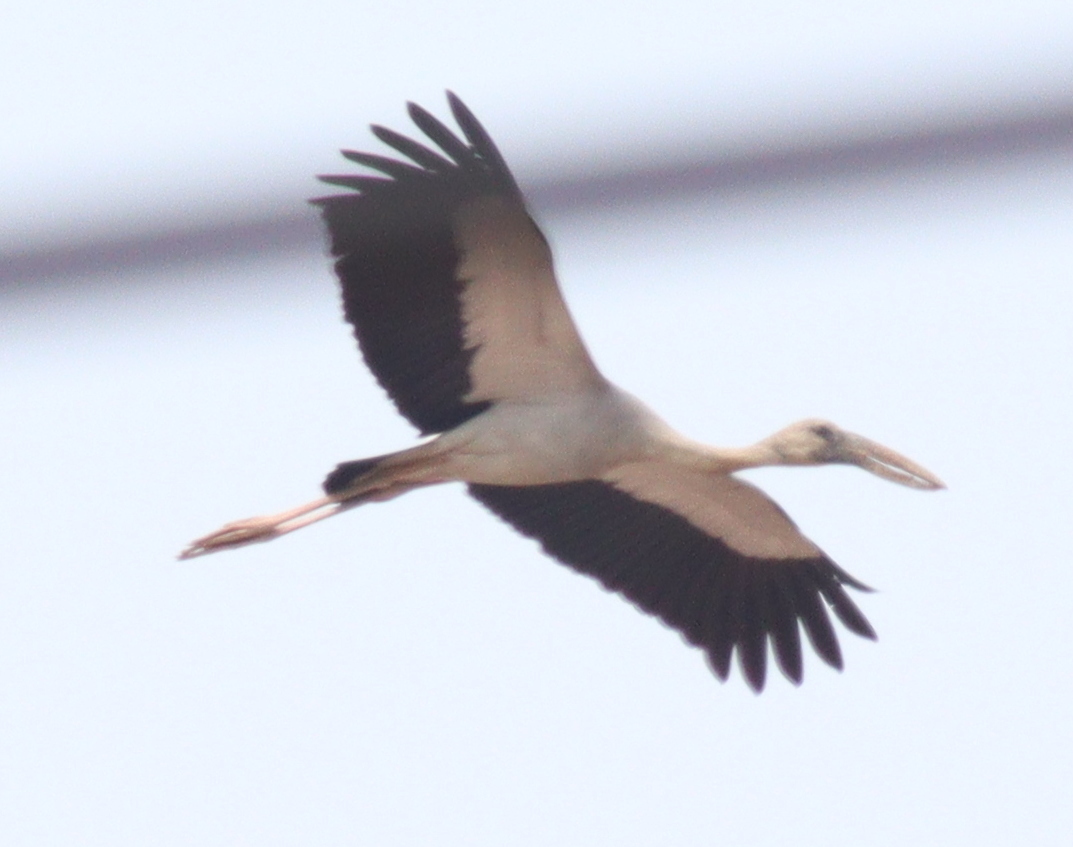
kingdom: Animalia
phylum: Chordata
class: Aves
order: Ciconiiformes
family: Ciconiidae
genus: Anastomus
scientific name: Anastomus oscitans
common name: Asian openbill
